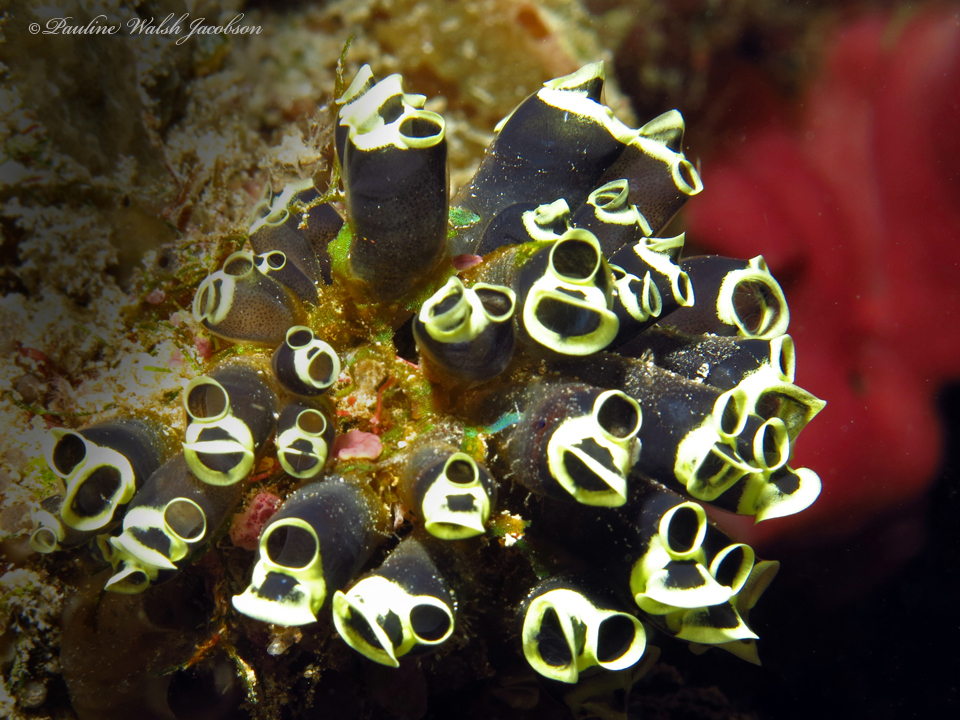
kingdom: Animalia
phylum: Chordata
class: Ascidiacea
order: Aplousobranchia
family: Clavelinidae
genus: Clavelina
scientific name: Clavelina robusta
